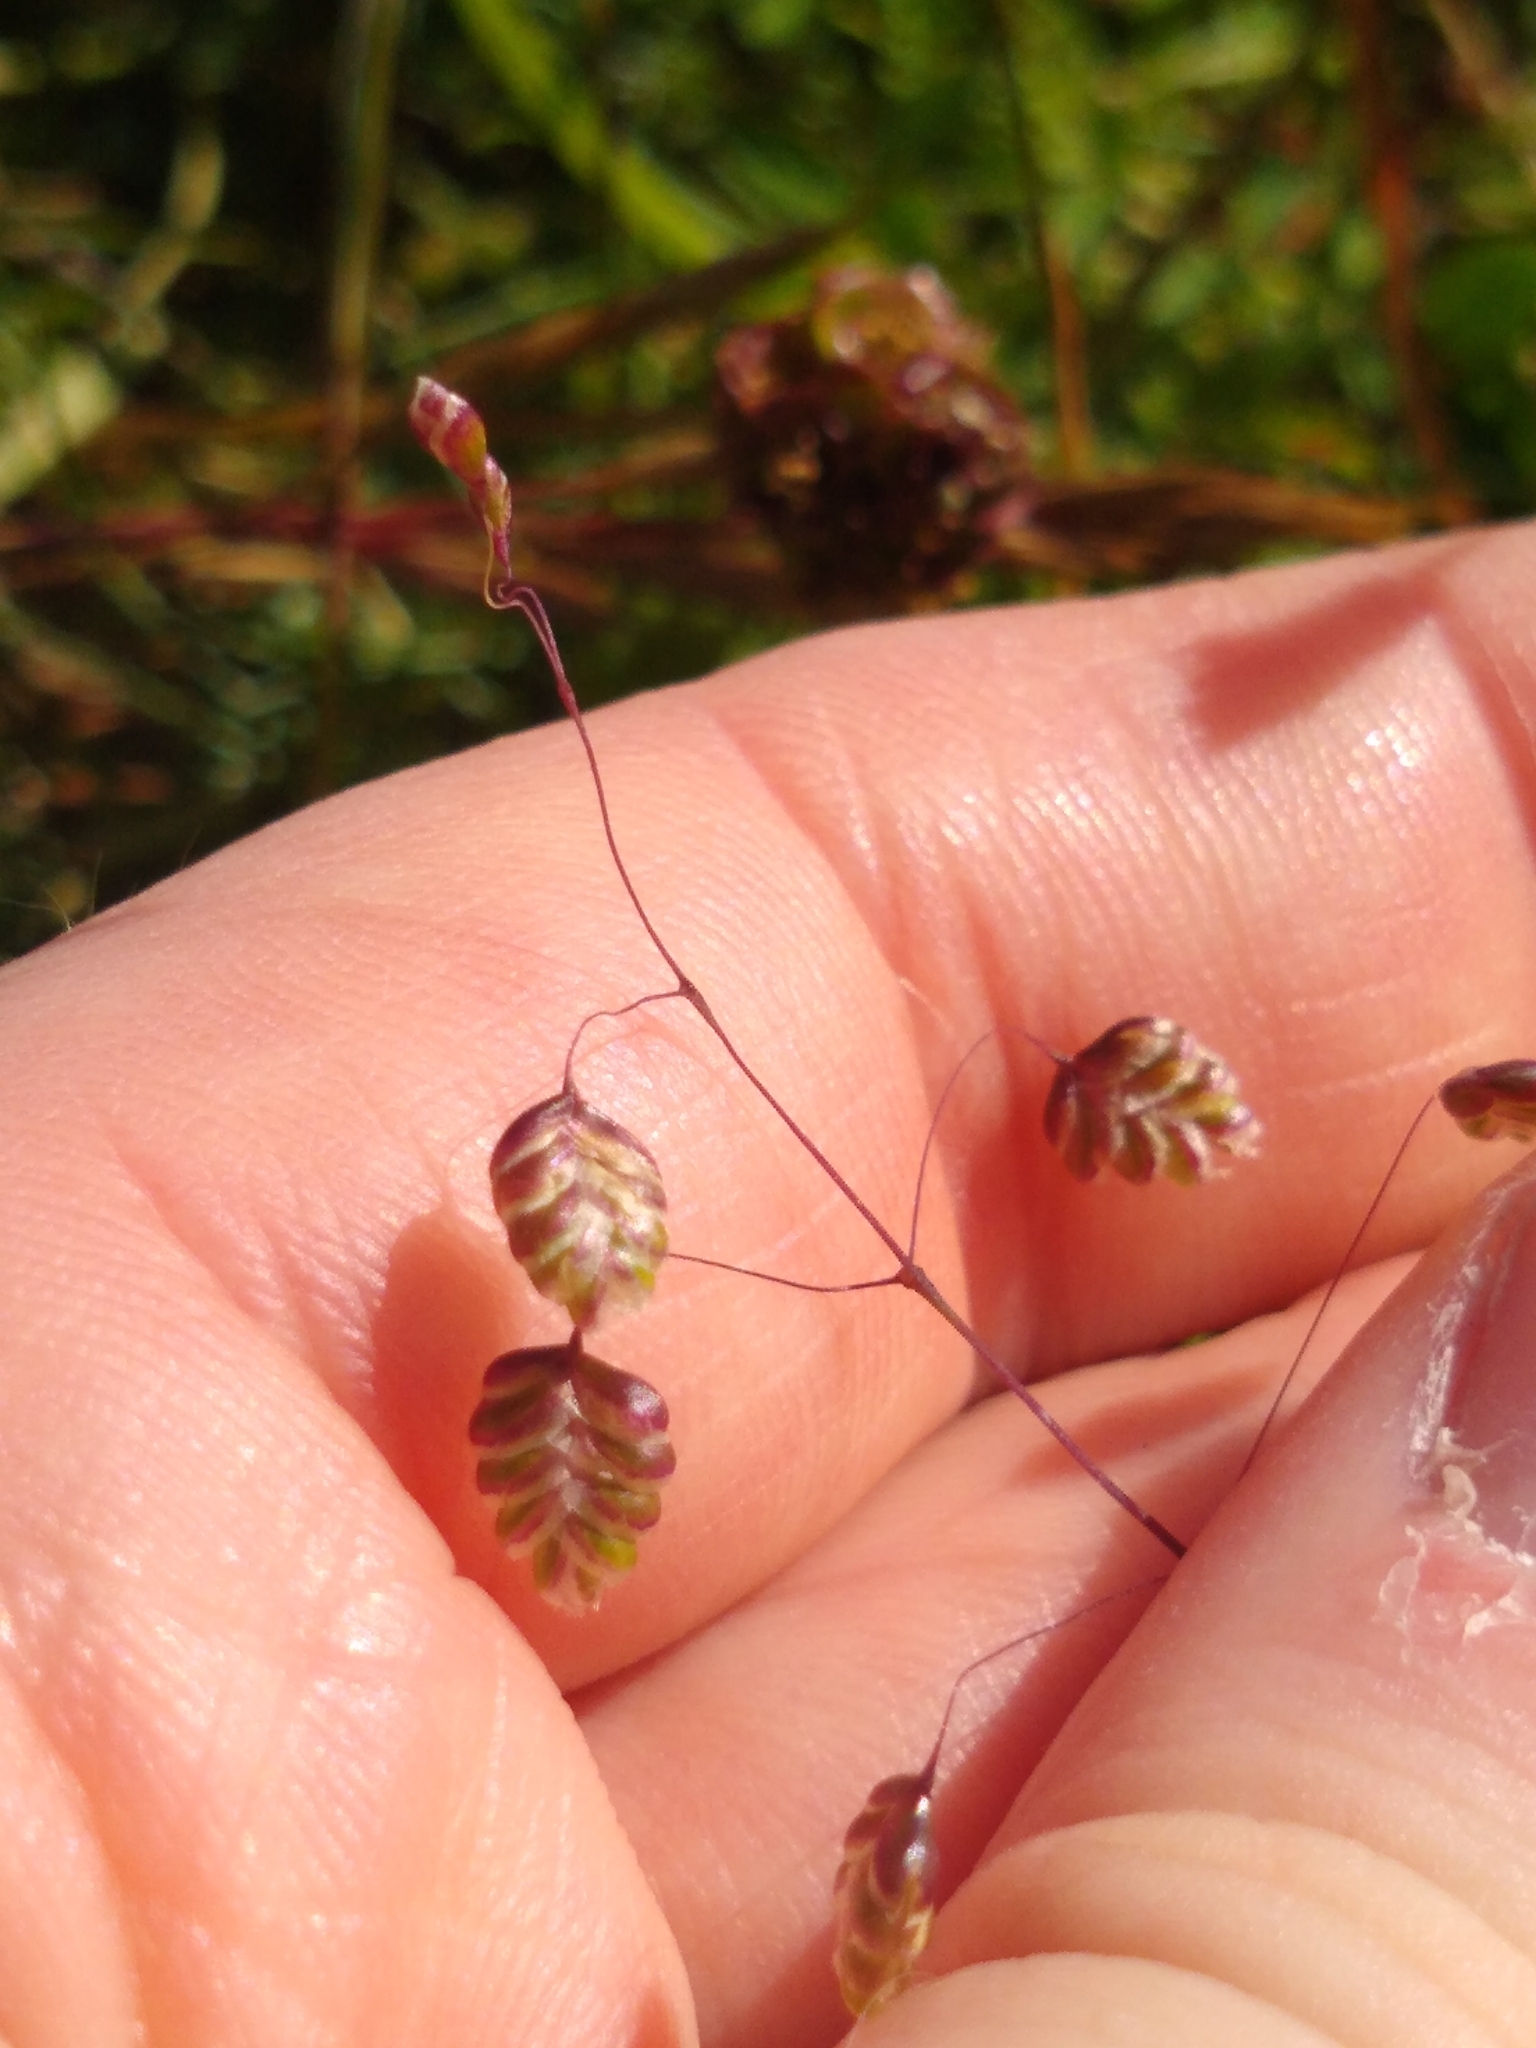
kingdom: Plantae
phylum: Tracheophyta
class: Liliopsida
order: Poales
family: Poaceae
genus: Briza
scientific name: Briza media
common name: Quaking grass
